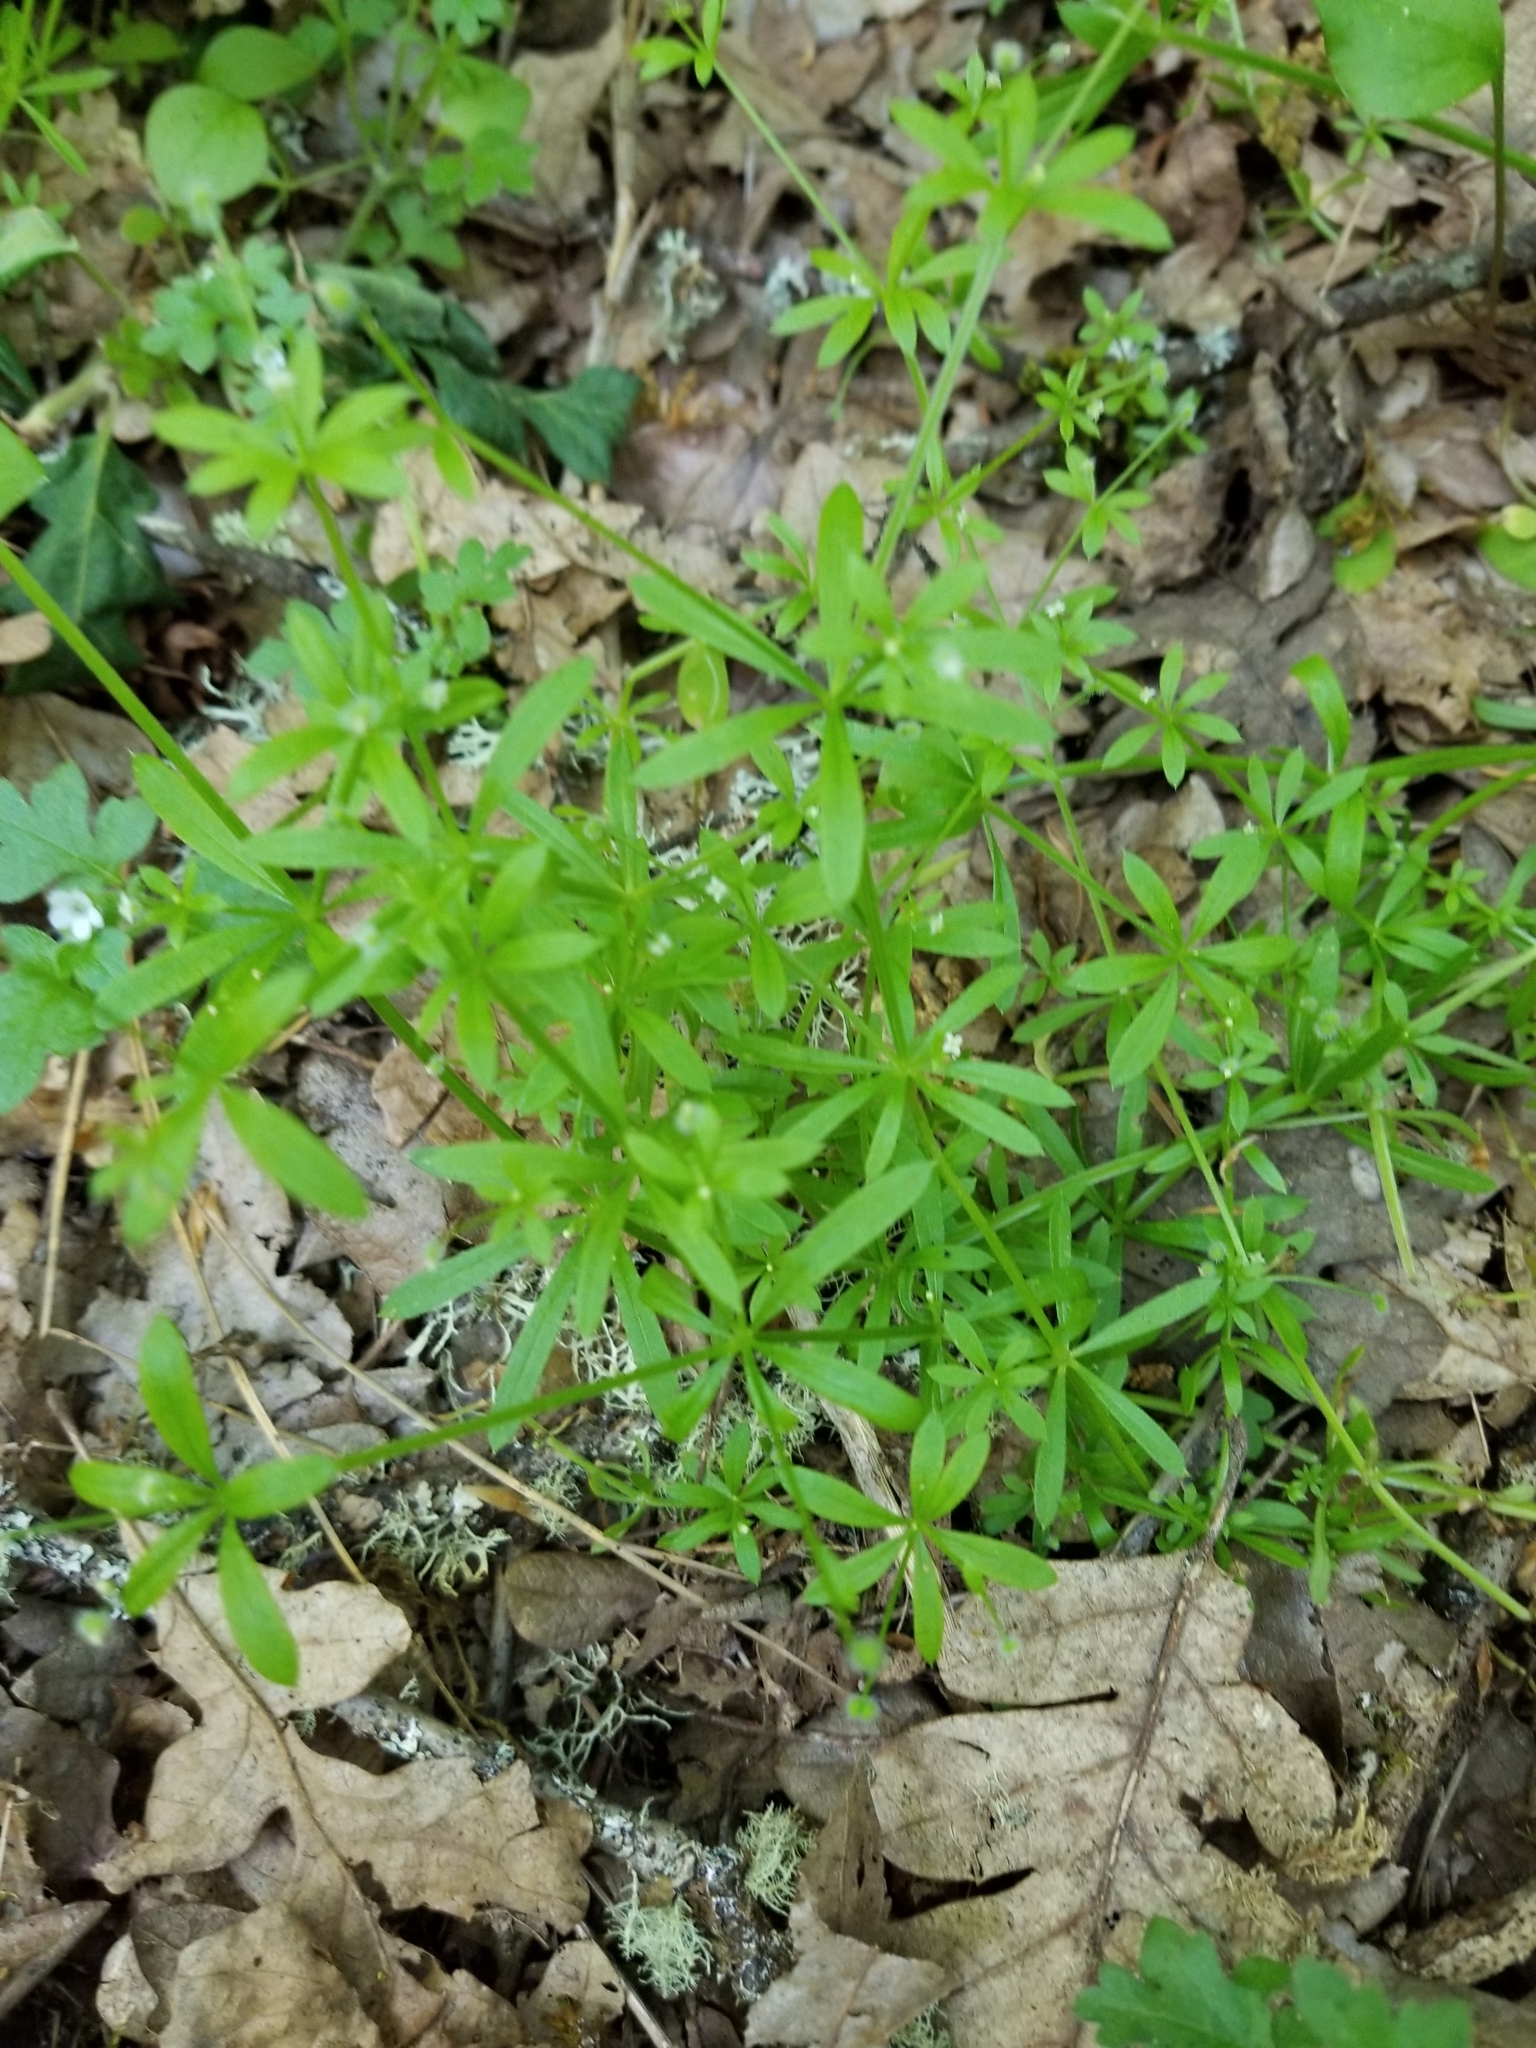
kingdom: Plantae
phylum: Tracheophyta
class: Magnoliopsida
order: Gentianales
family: Rubiaceae
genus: Galium
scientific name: Galium aparine
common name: Cleavers
